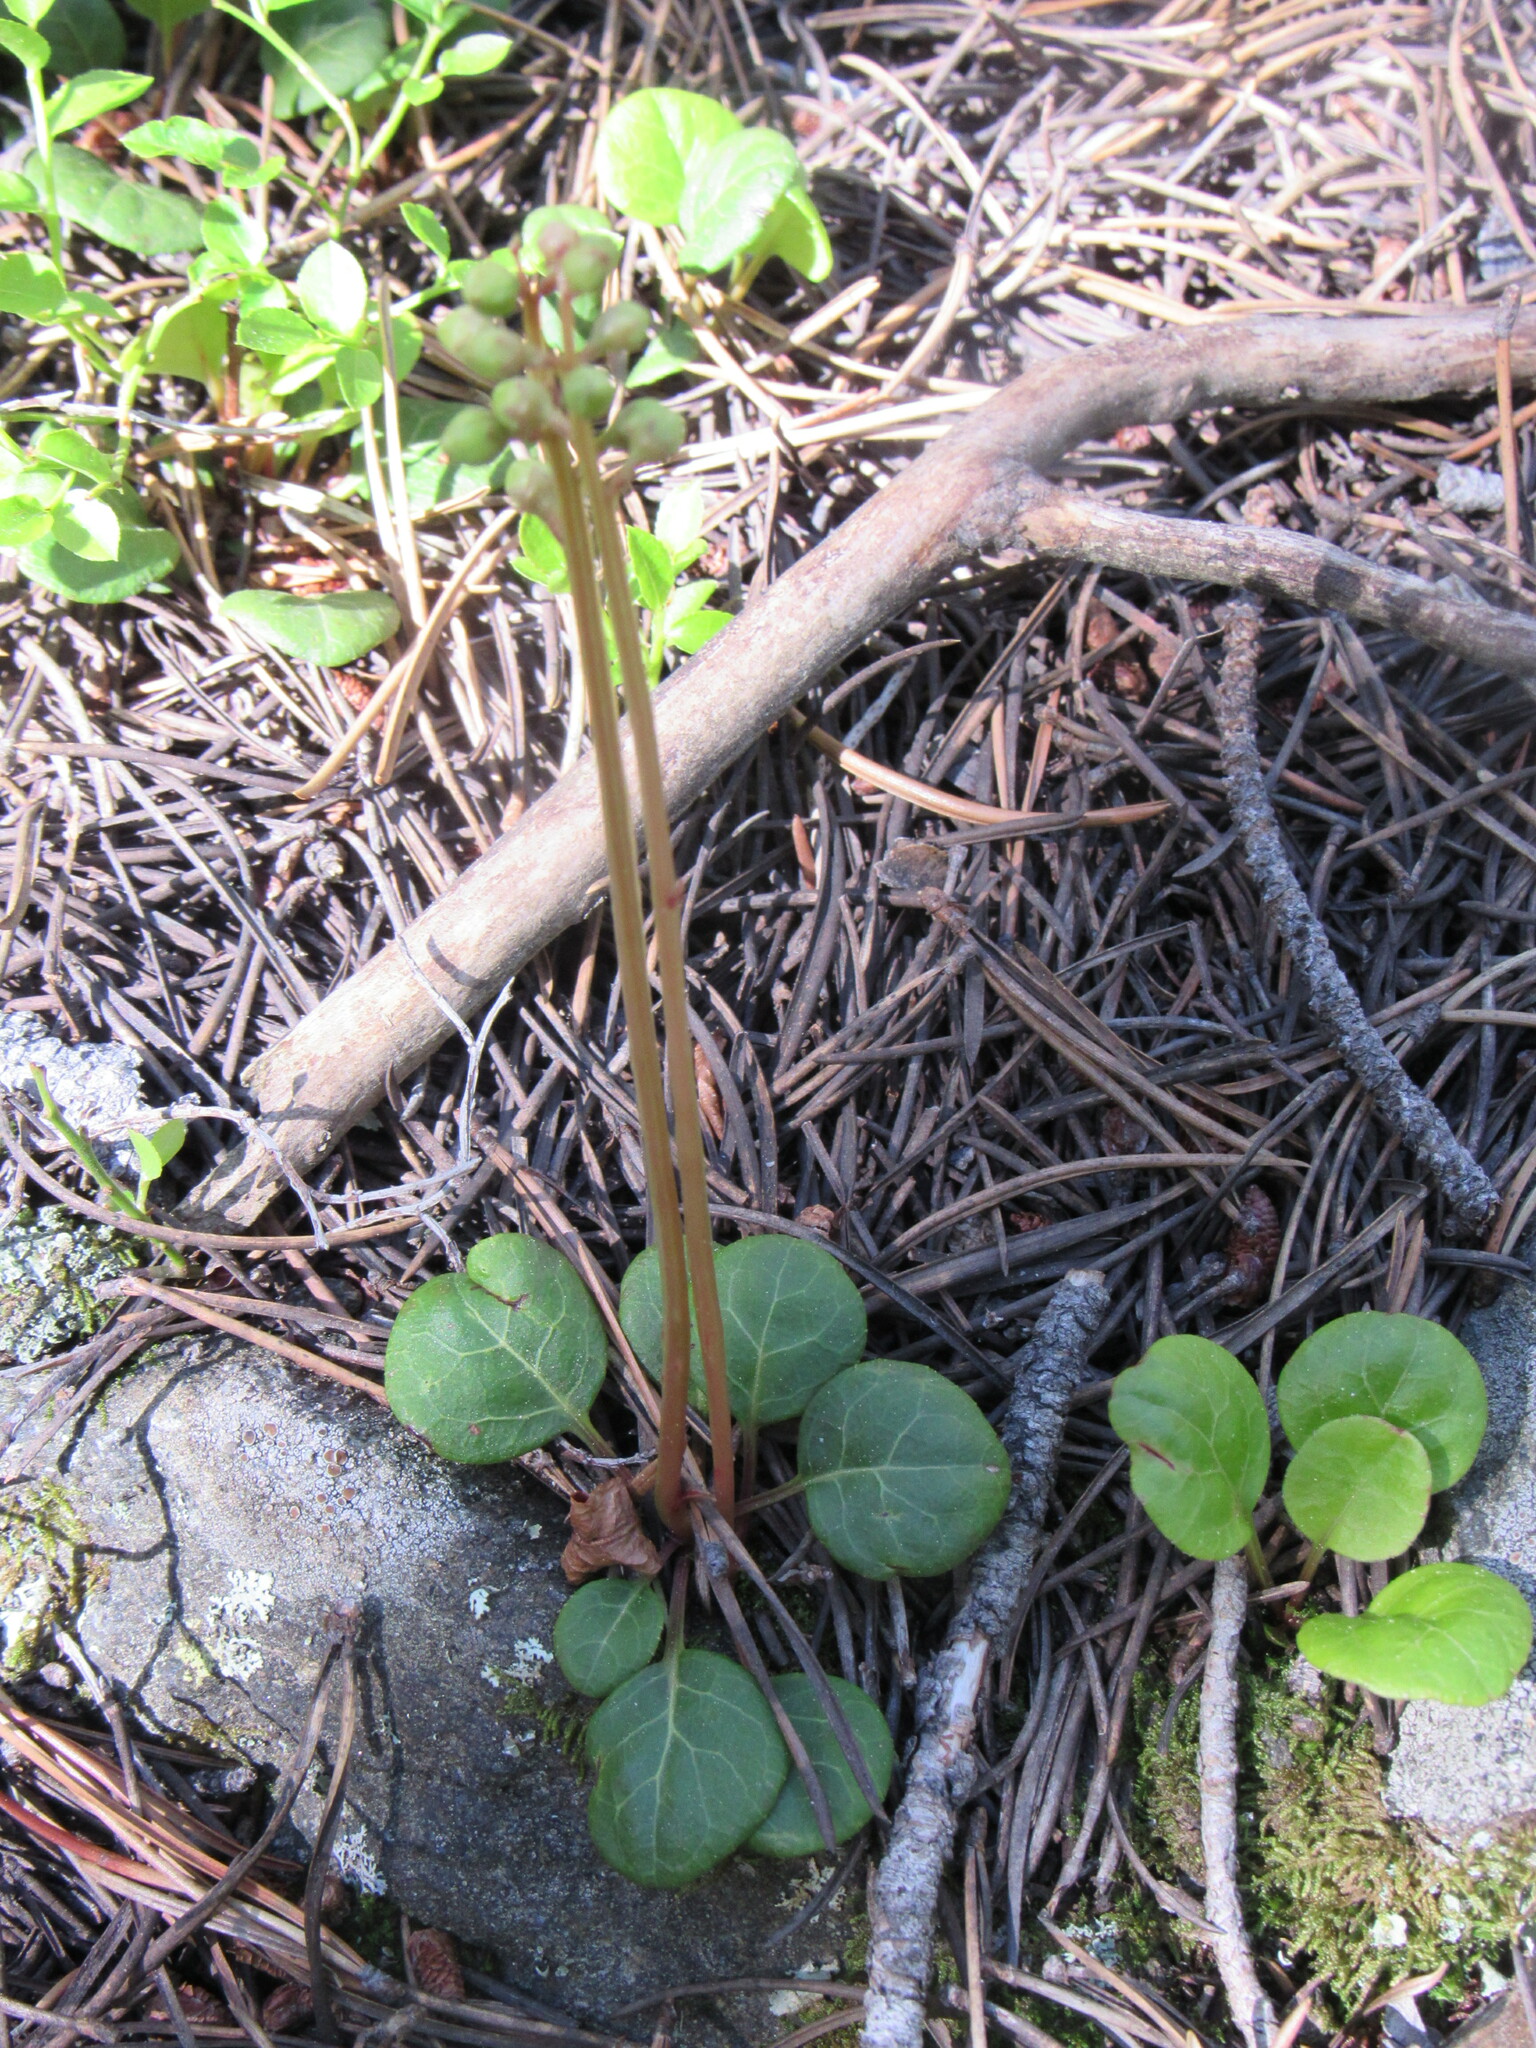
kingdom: Plantae
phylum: Tracheophyta
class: Magnoliopsida
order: Ericales
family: Ericaceae
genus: Pyrola
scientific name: Pyrola chlorantha
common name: Green wintergreen
